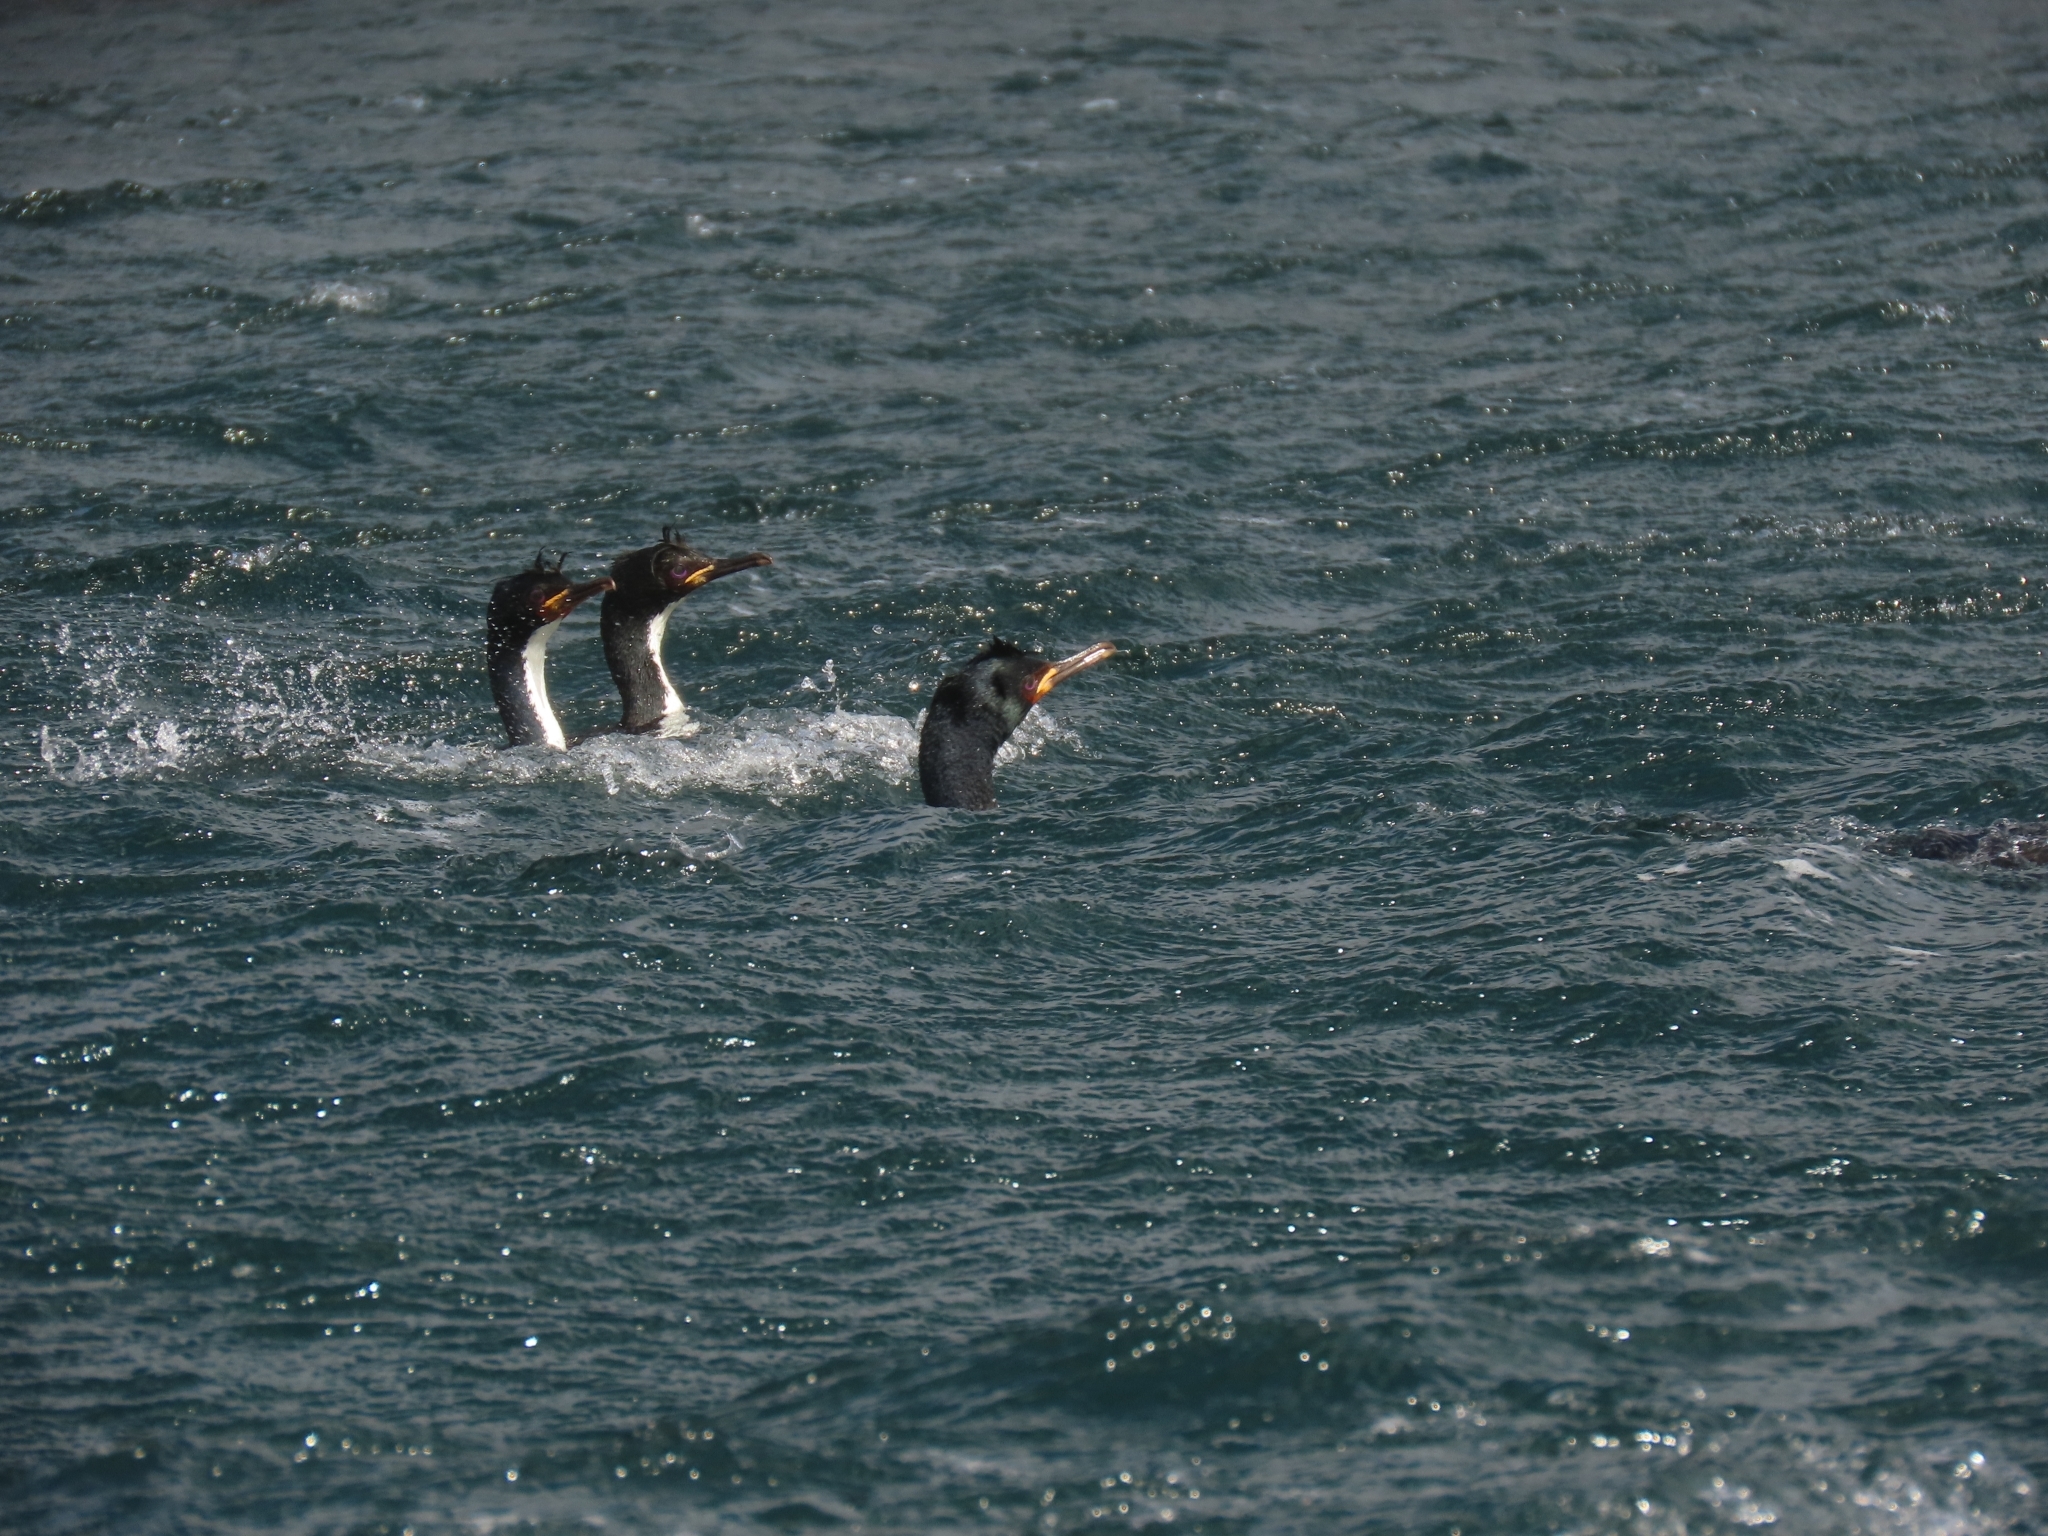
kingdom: Animalia
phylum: Chordata
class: Aves
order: Suliformes
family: Phalacrocoracidae
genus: Leucocarbo
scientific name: Leucocarbo colensoi
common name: Auckland shag
